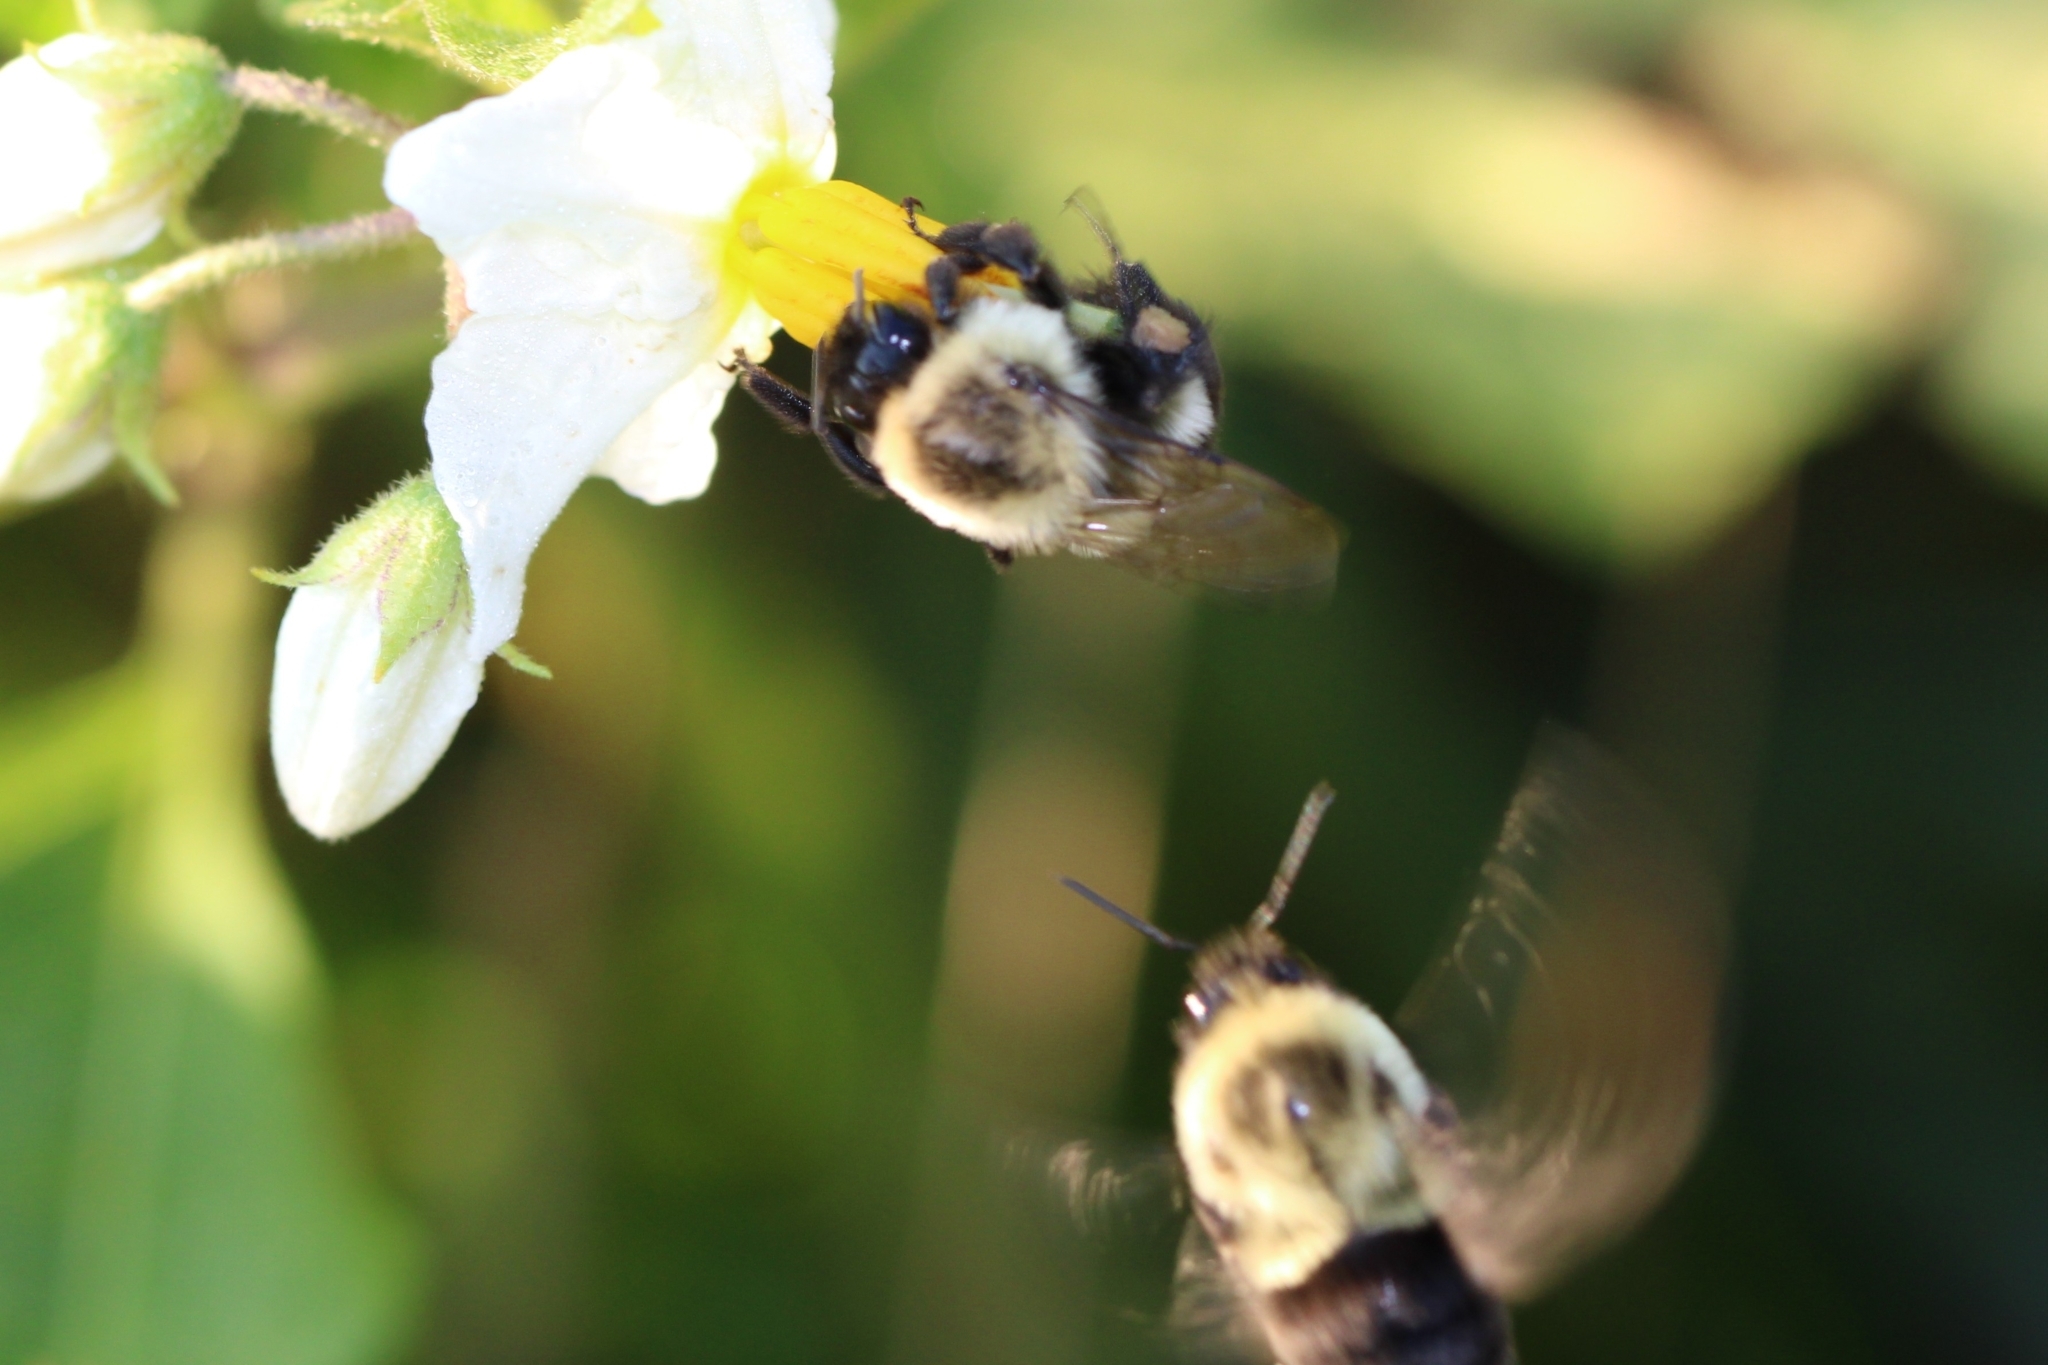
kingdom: Animalia
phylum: Arthropoda
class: Insecta
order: Hymenoptera
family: Apidae
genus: Bombus
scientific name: Bombus impatiens
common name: Common eastern bumble bee
